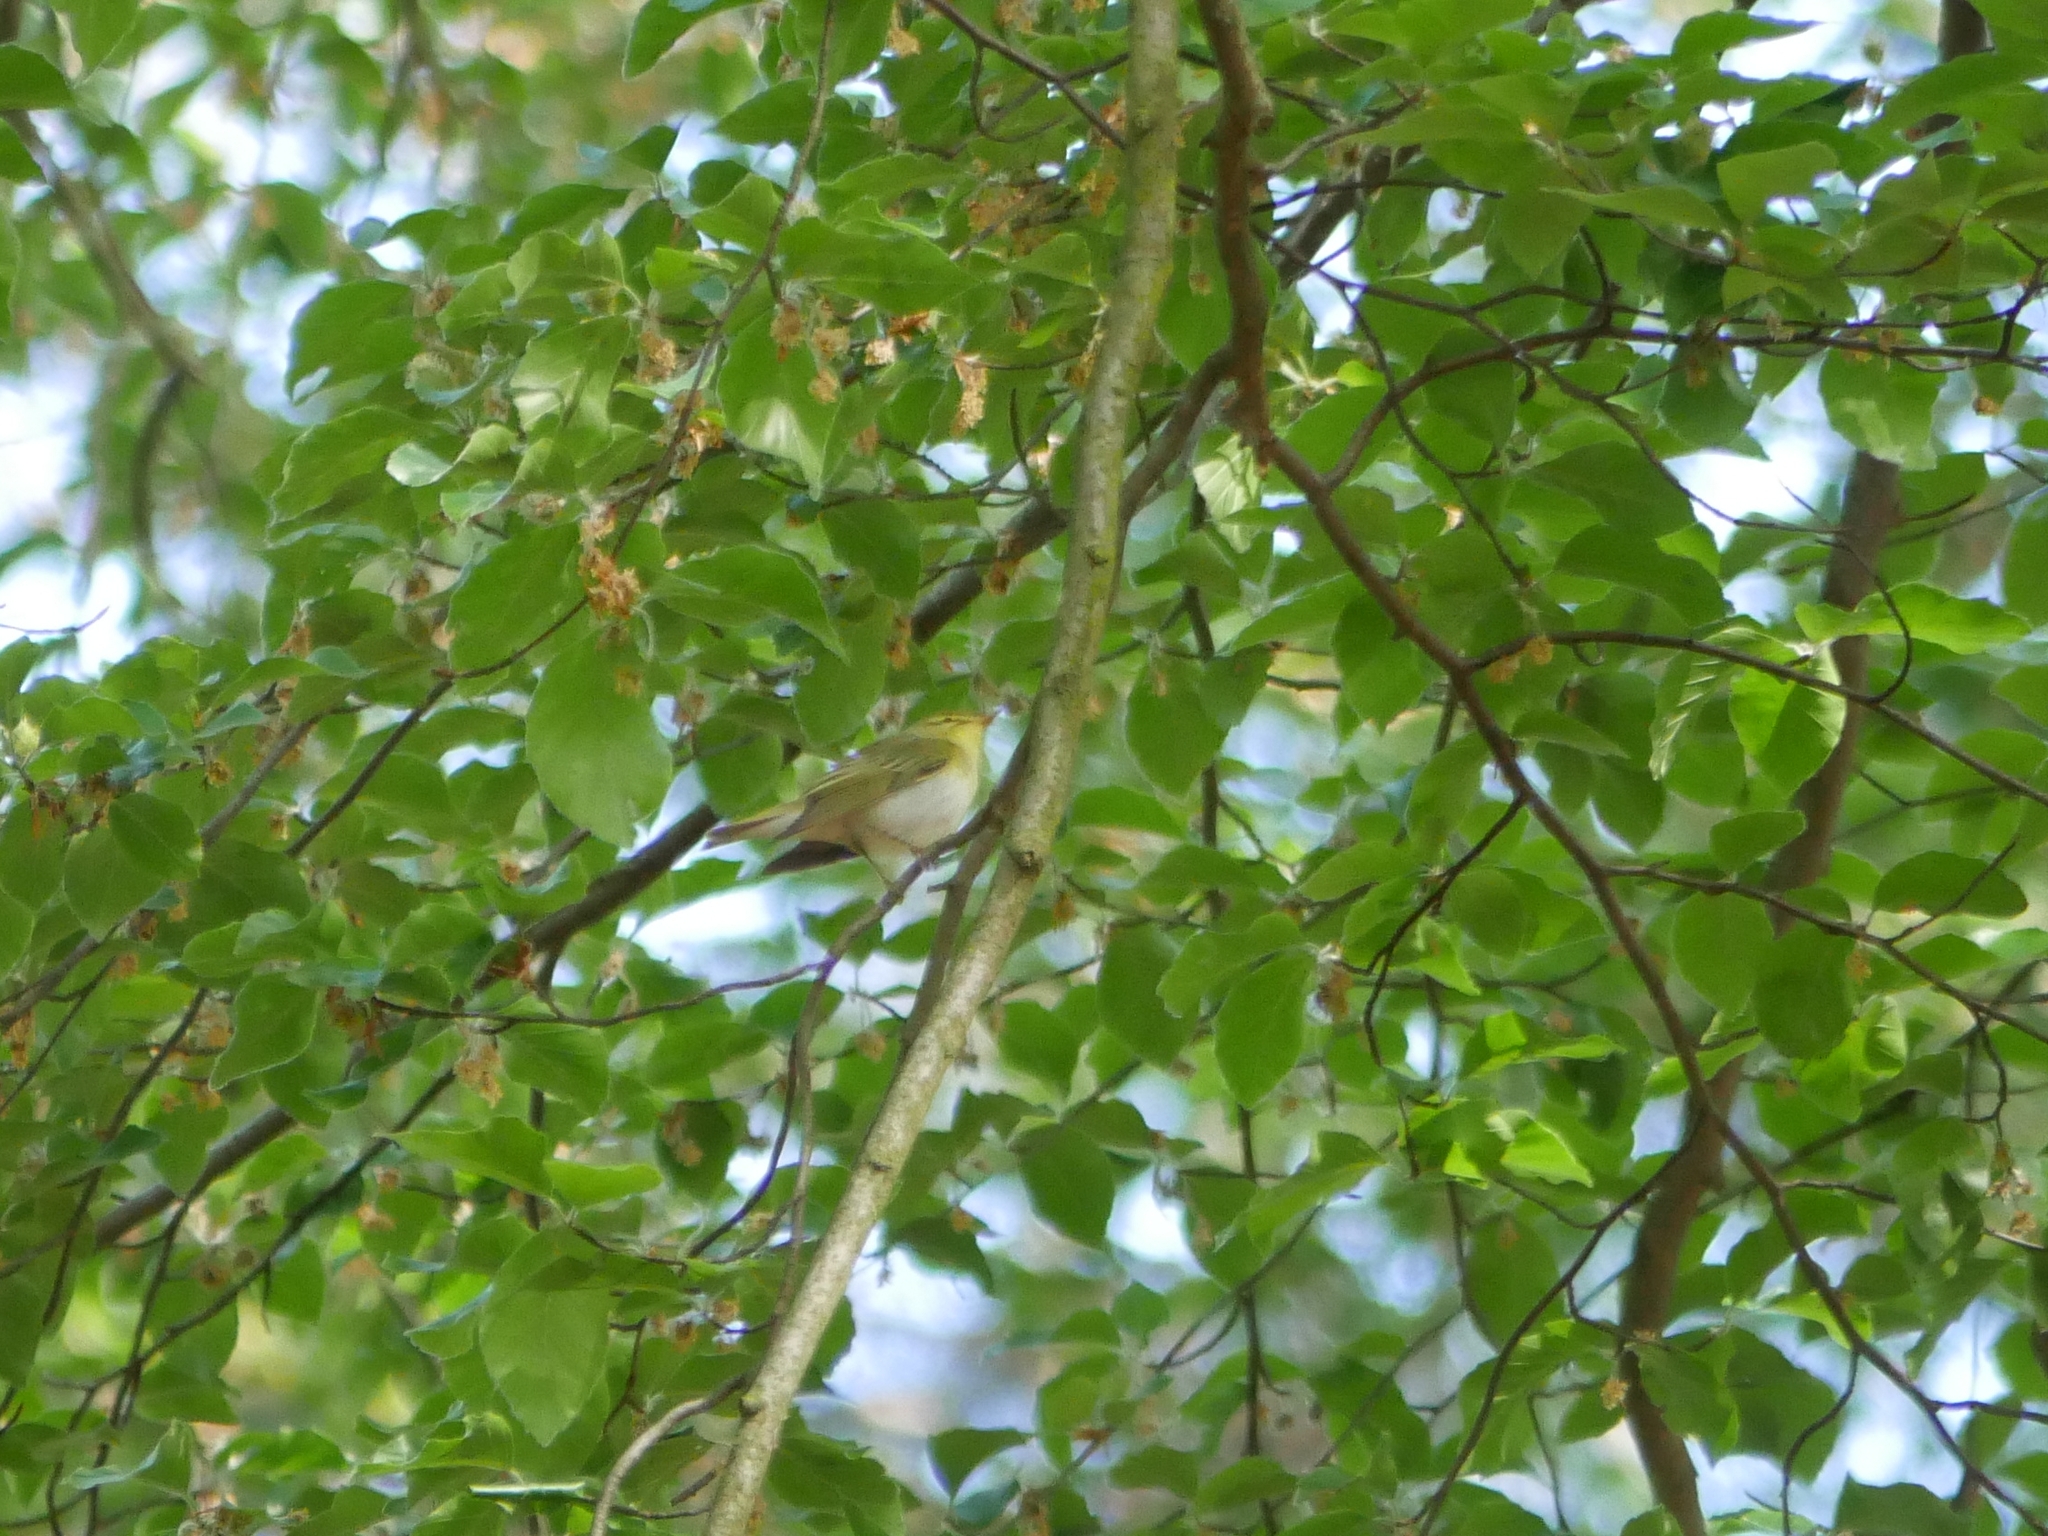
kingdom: Animalia
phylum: Chordata
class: Aves
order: Passeriformes
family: Phylloscopidae
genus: Phylloscopus
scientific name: Phylloscopus sibillatrix
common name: Wood warbler
